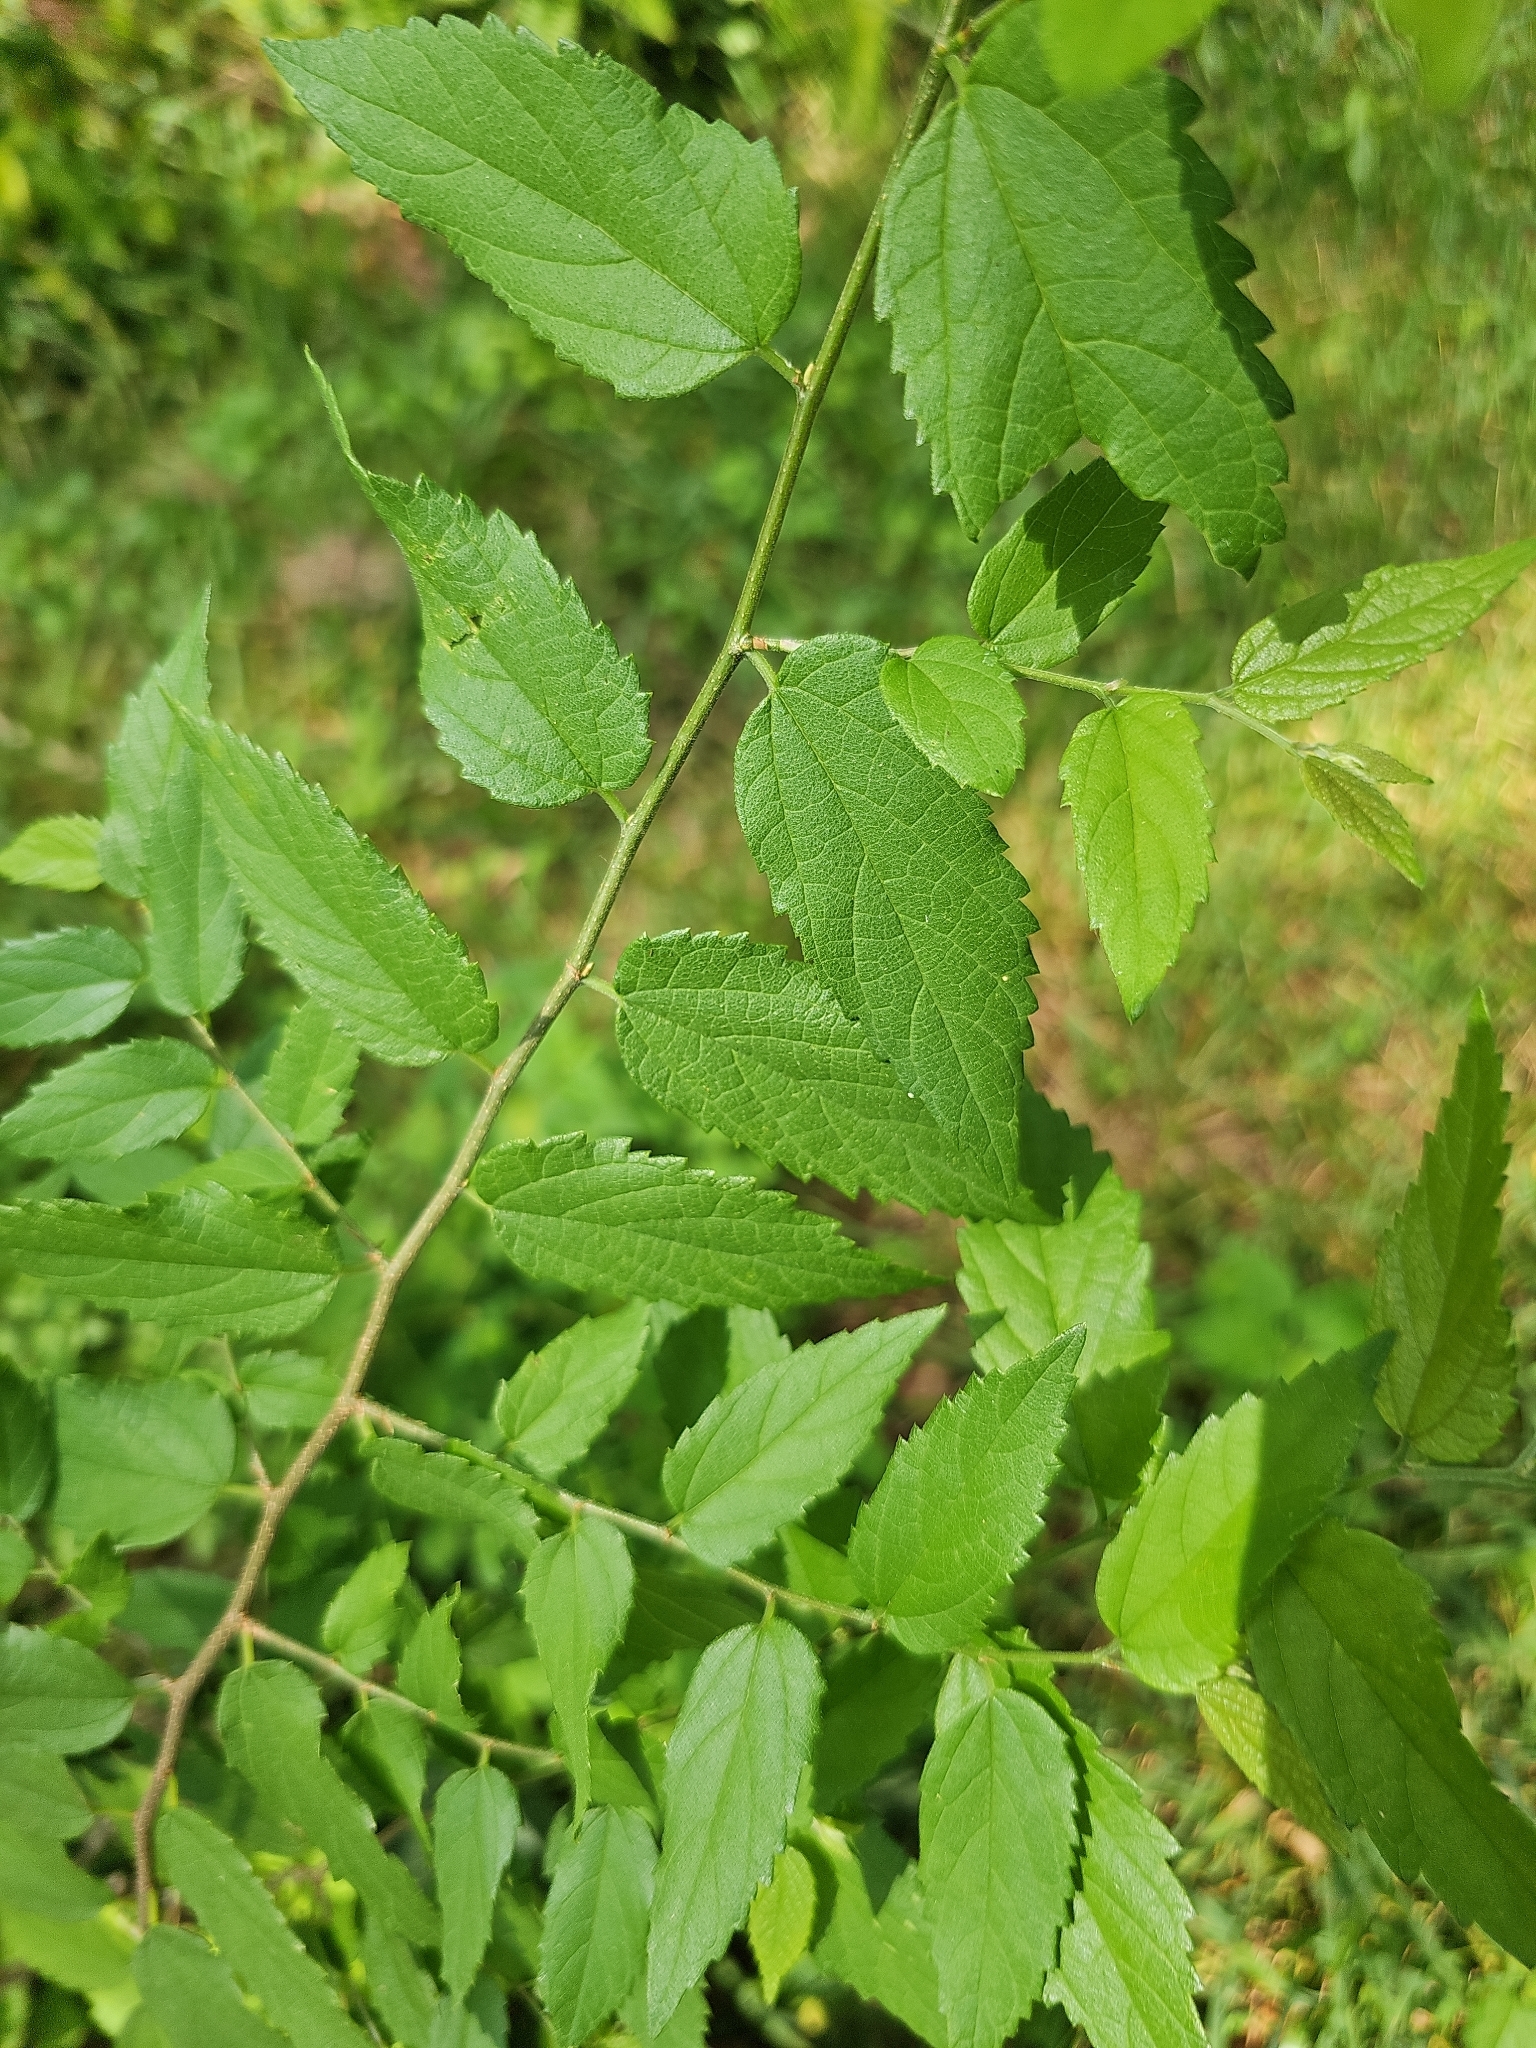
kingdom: Plantae
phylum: Tracheophyta
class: Magnoliopsida
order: Rosales
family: Cannabaceae
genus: Celtis
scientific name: Celtis laevigata
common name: Sugarberry
